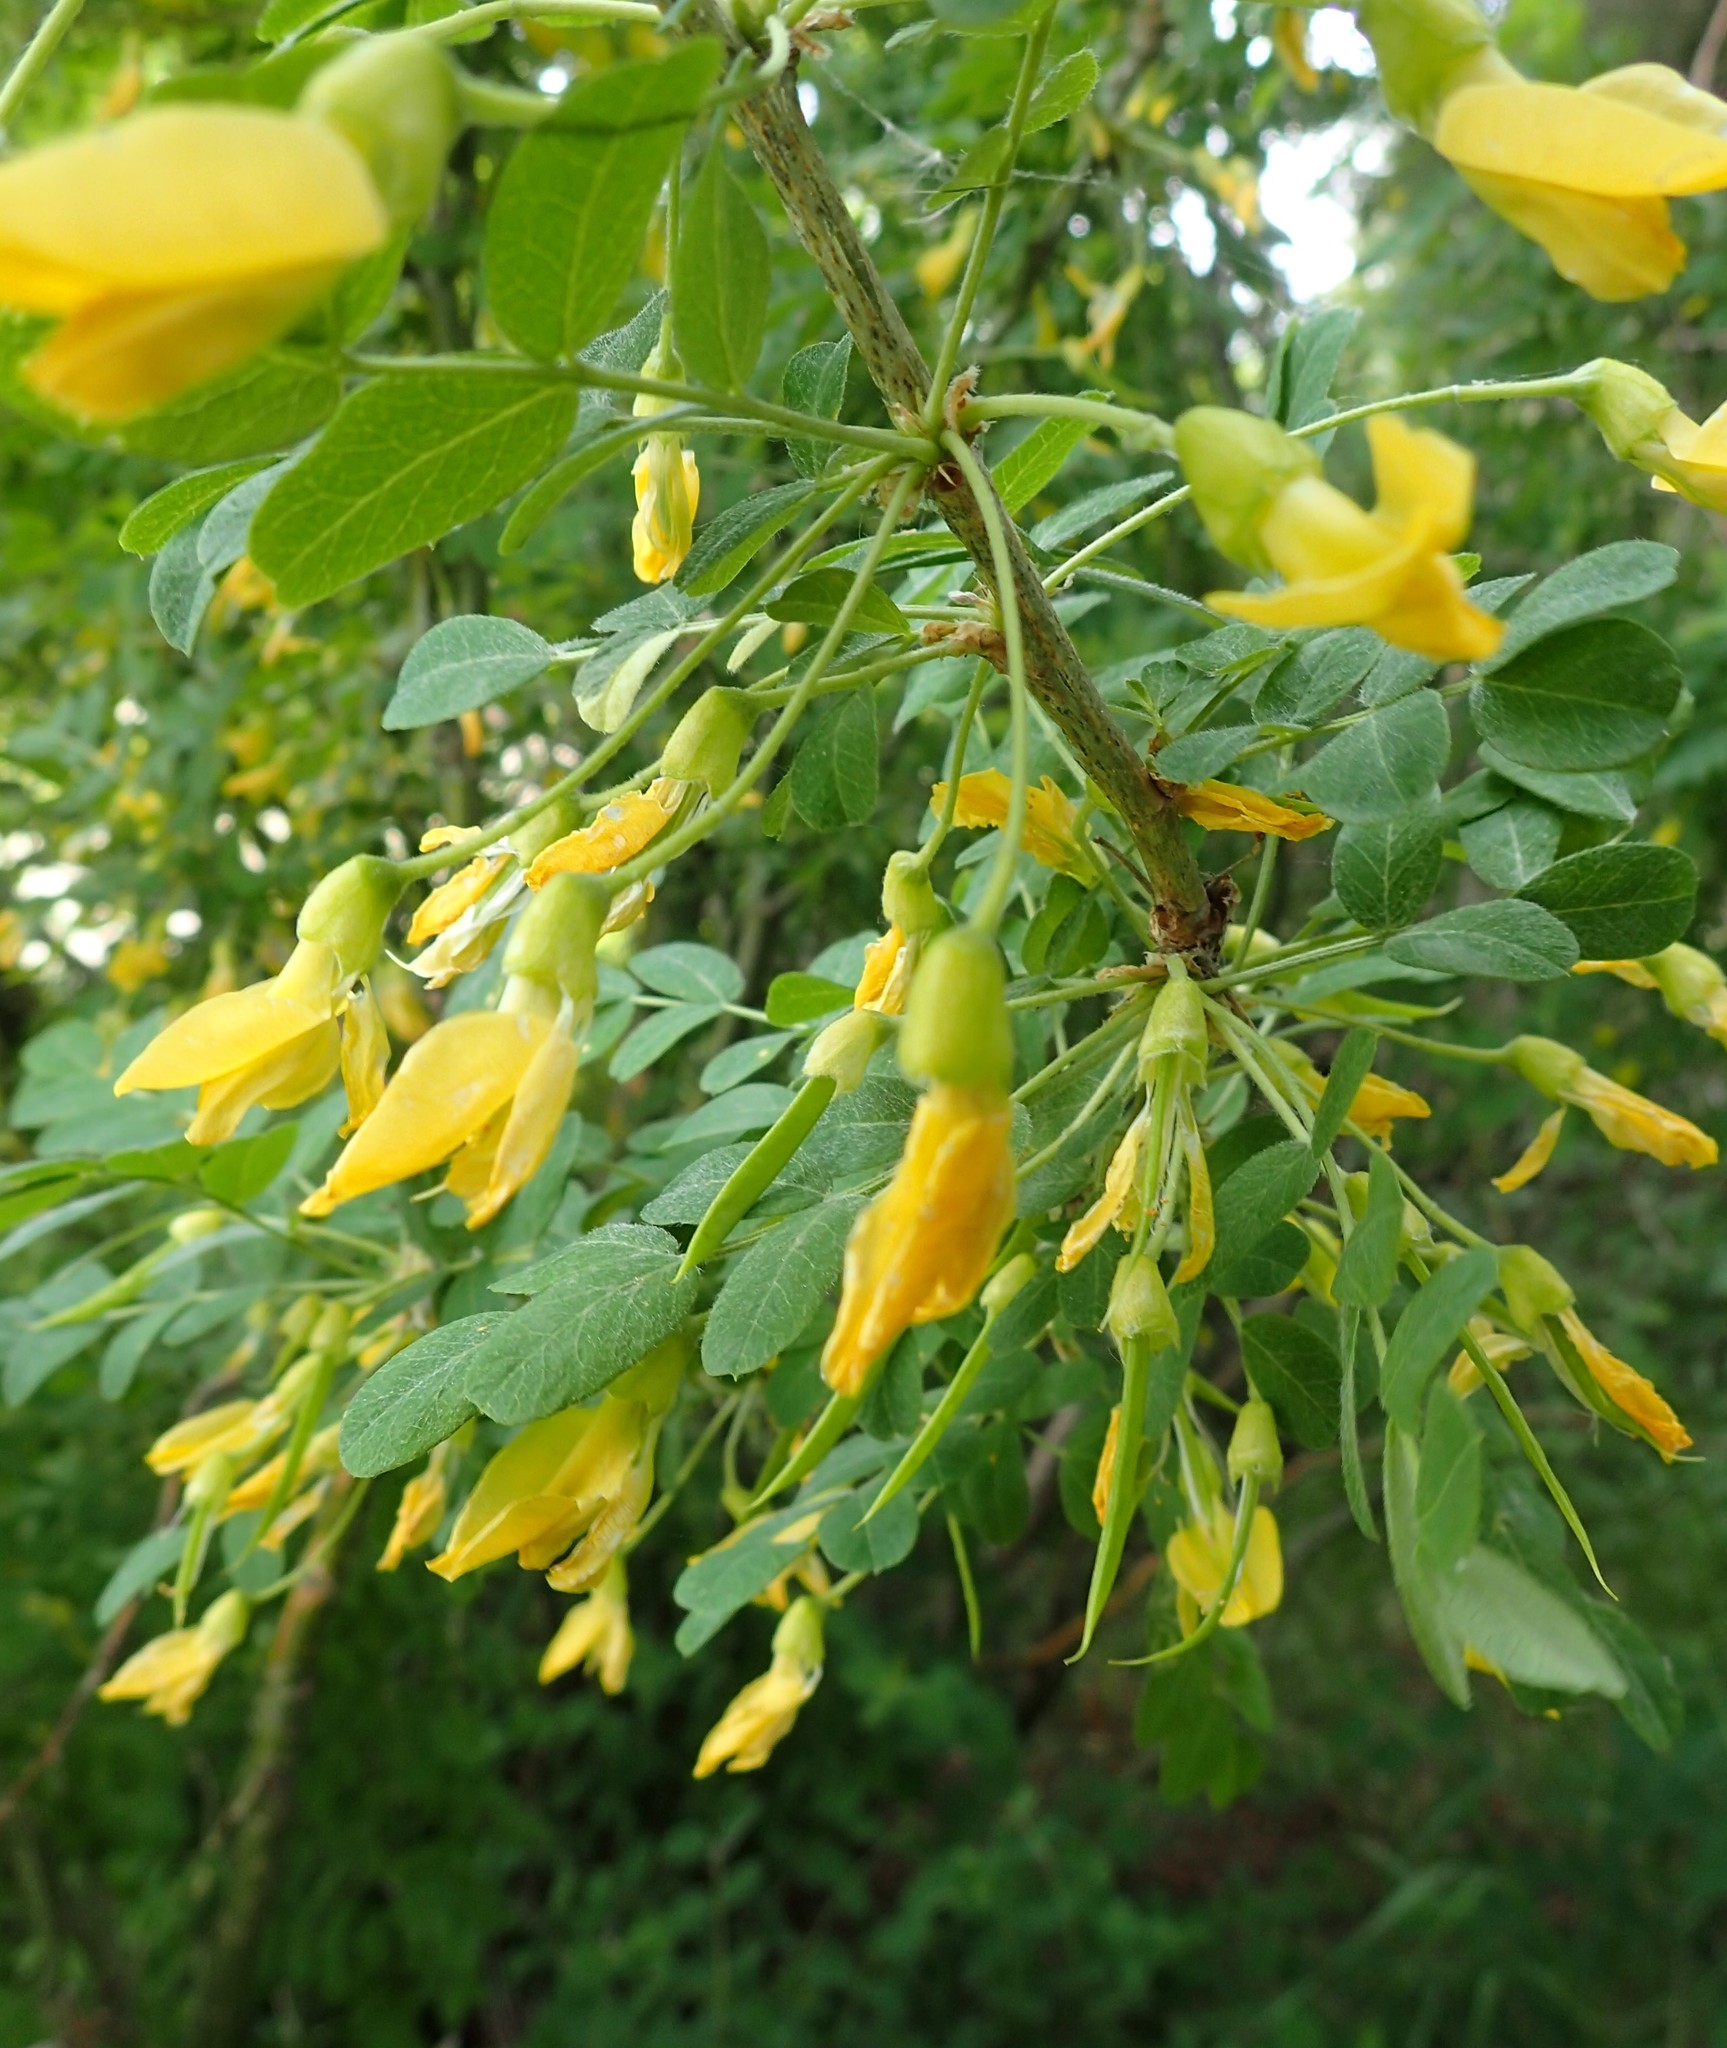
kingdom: Plantae
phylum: Tracheophyta
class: Magnoliopsida
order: Fabales
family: Fabaceae
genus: Caragana
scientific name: Caragana arborescens
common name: Siberian peashrub
